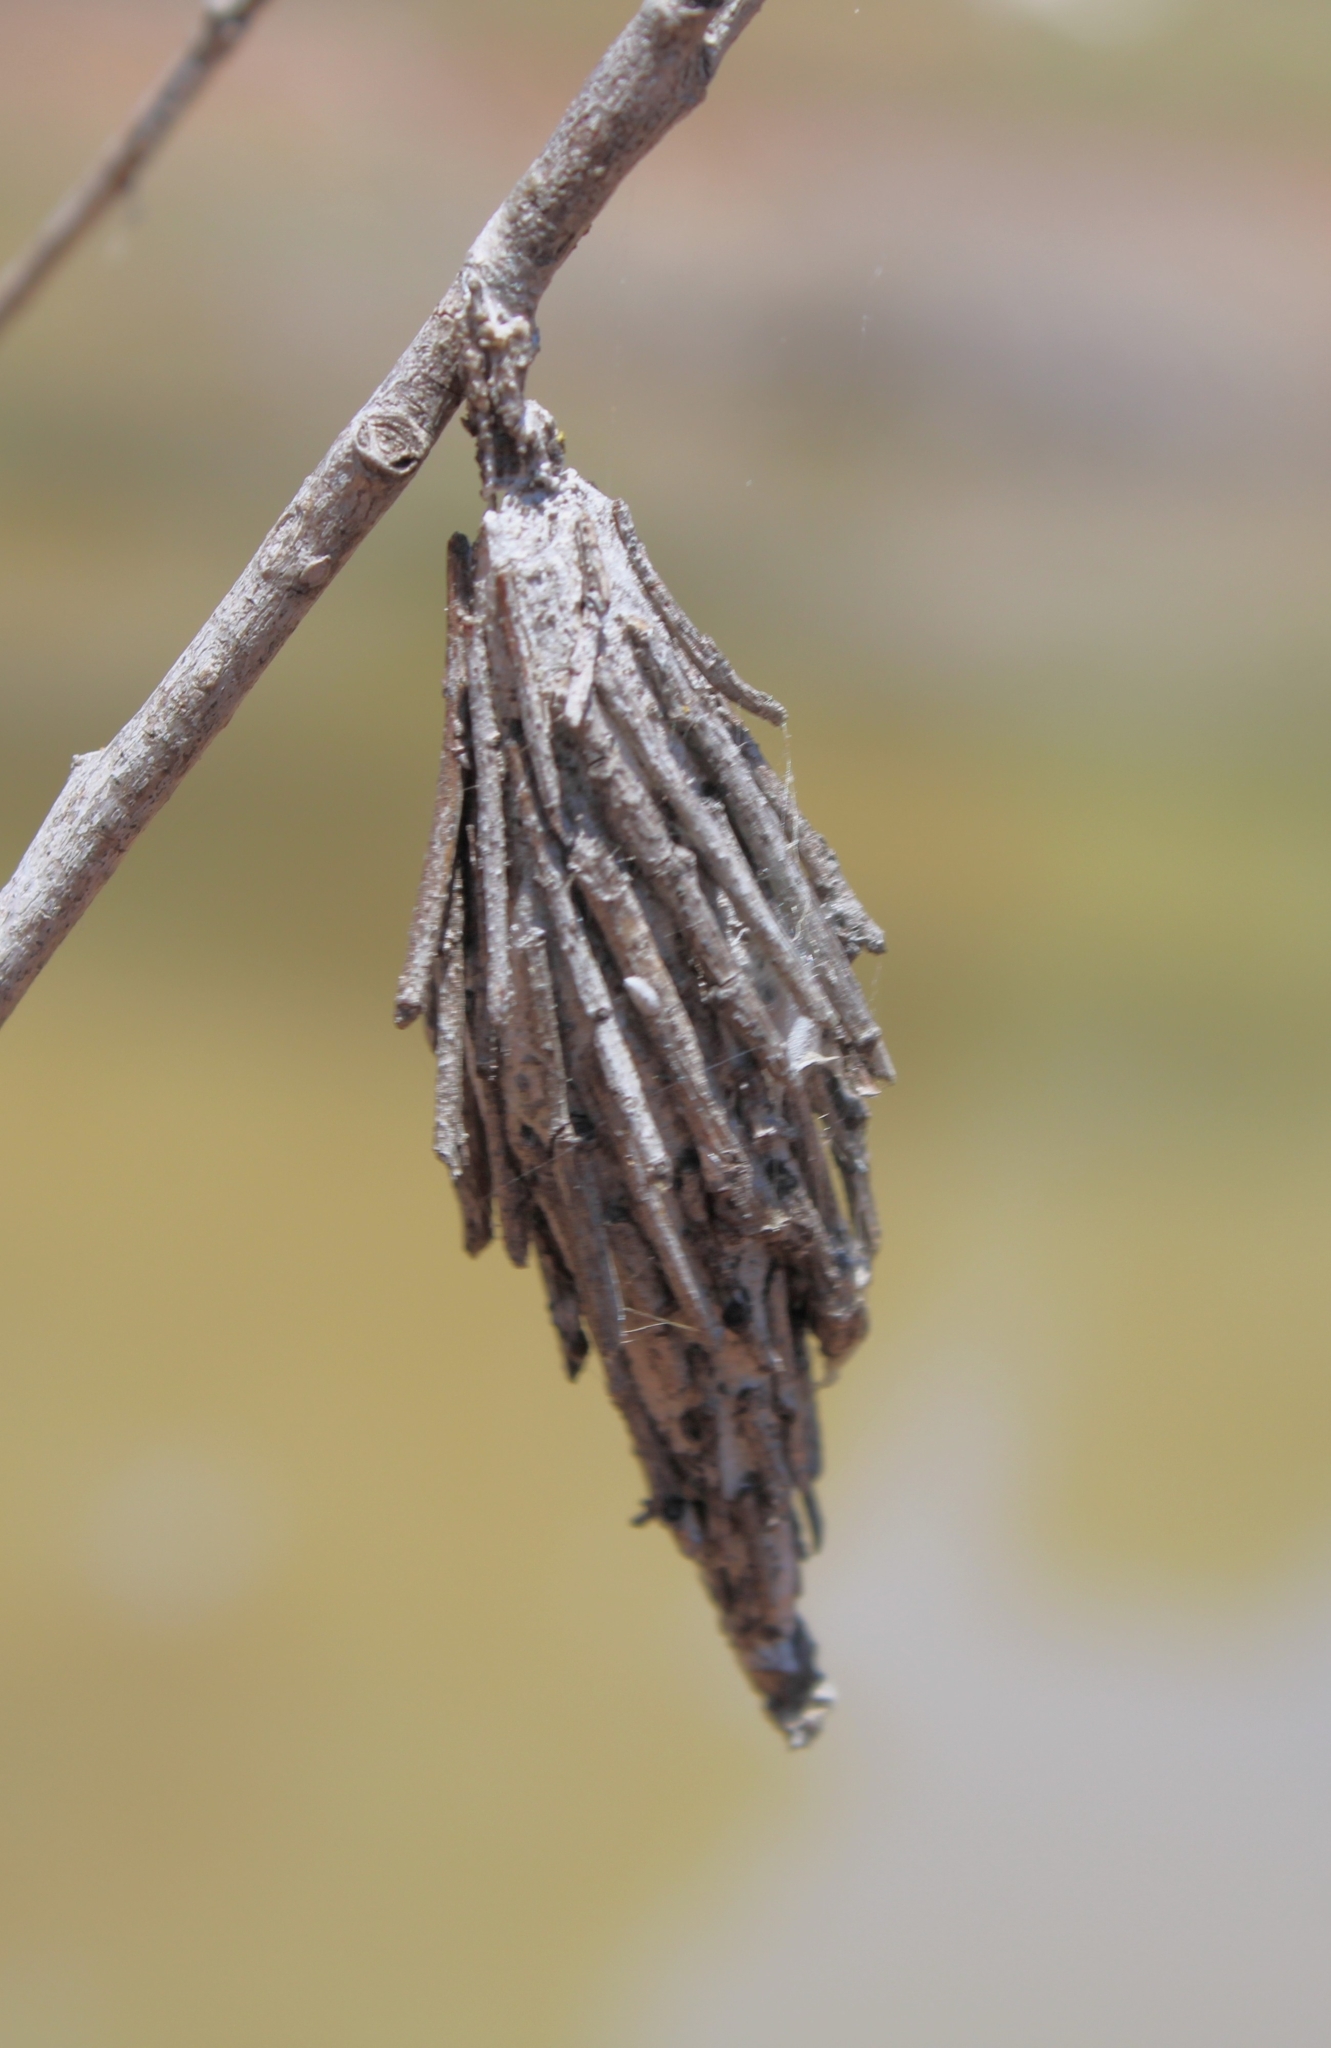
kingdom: Animalia
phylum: Arthropoda
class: Insecta
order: Lepidoptera
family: Psychidae
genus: Thyridopteryx
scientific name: Thyridopteryx ephemeraeformis
